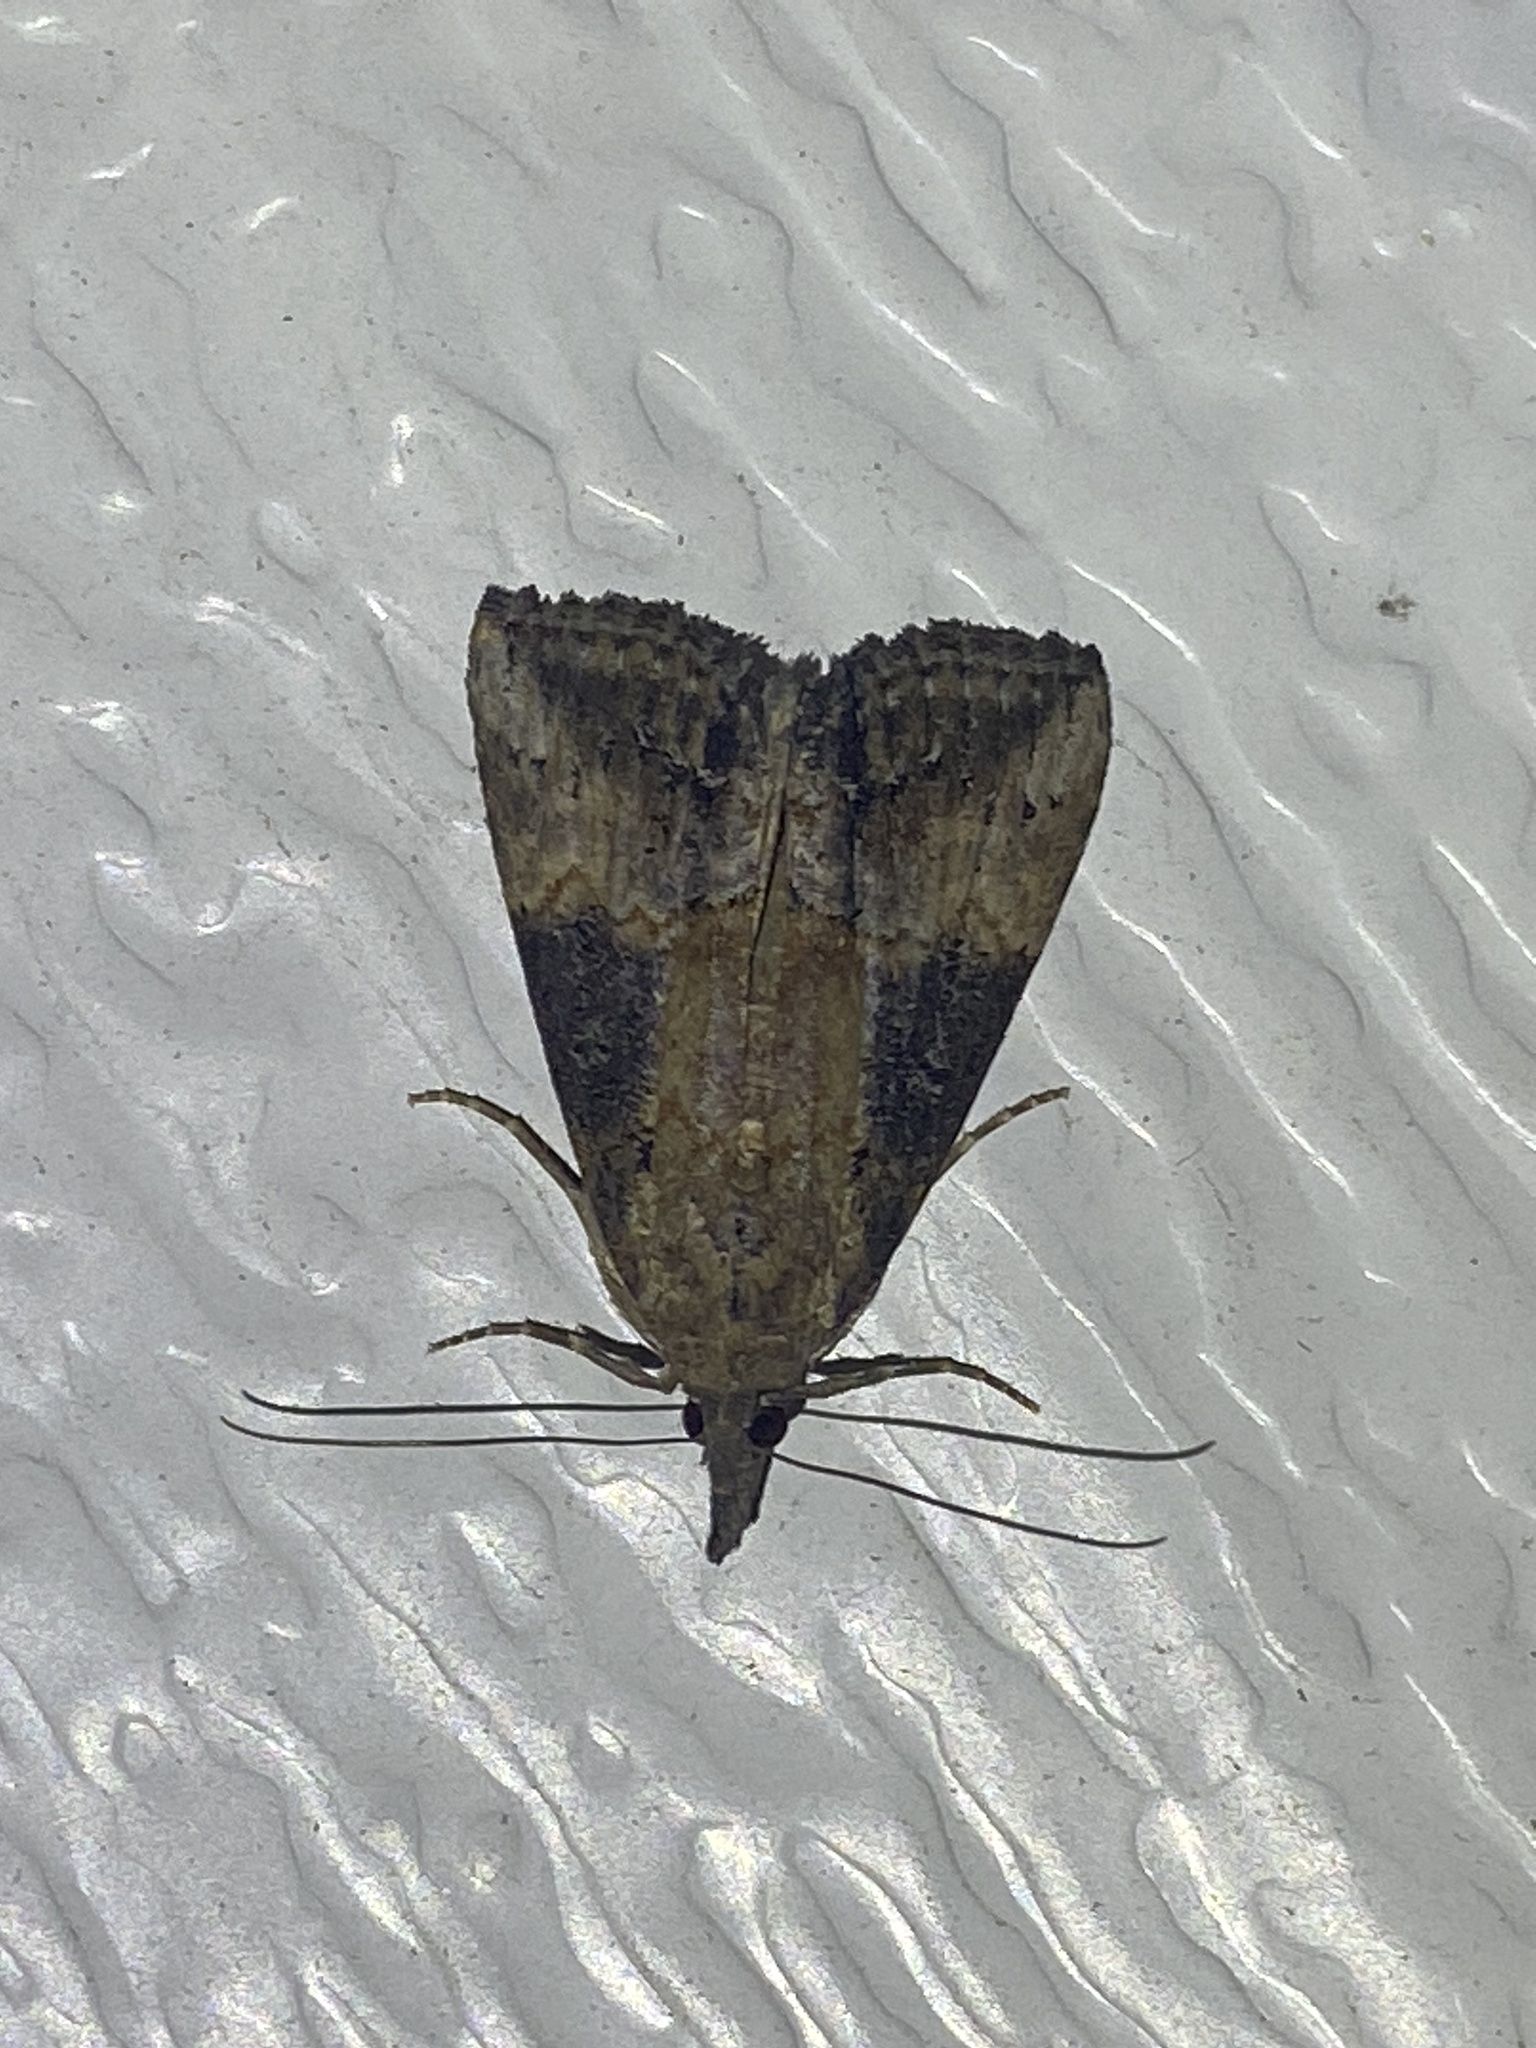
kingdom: Animalia
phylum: Arthropoda
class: Insecta
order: Lepidoptera
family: Erebidae
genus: Hypena
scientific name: Hypena scabra
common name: Green cloverworm
